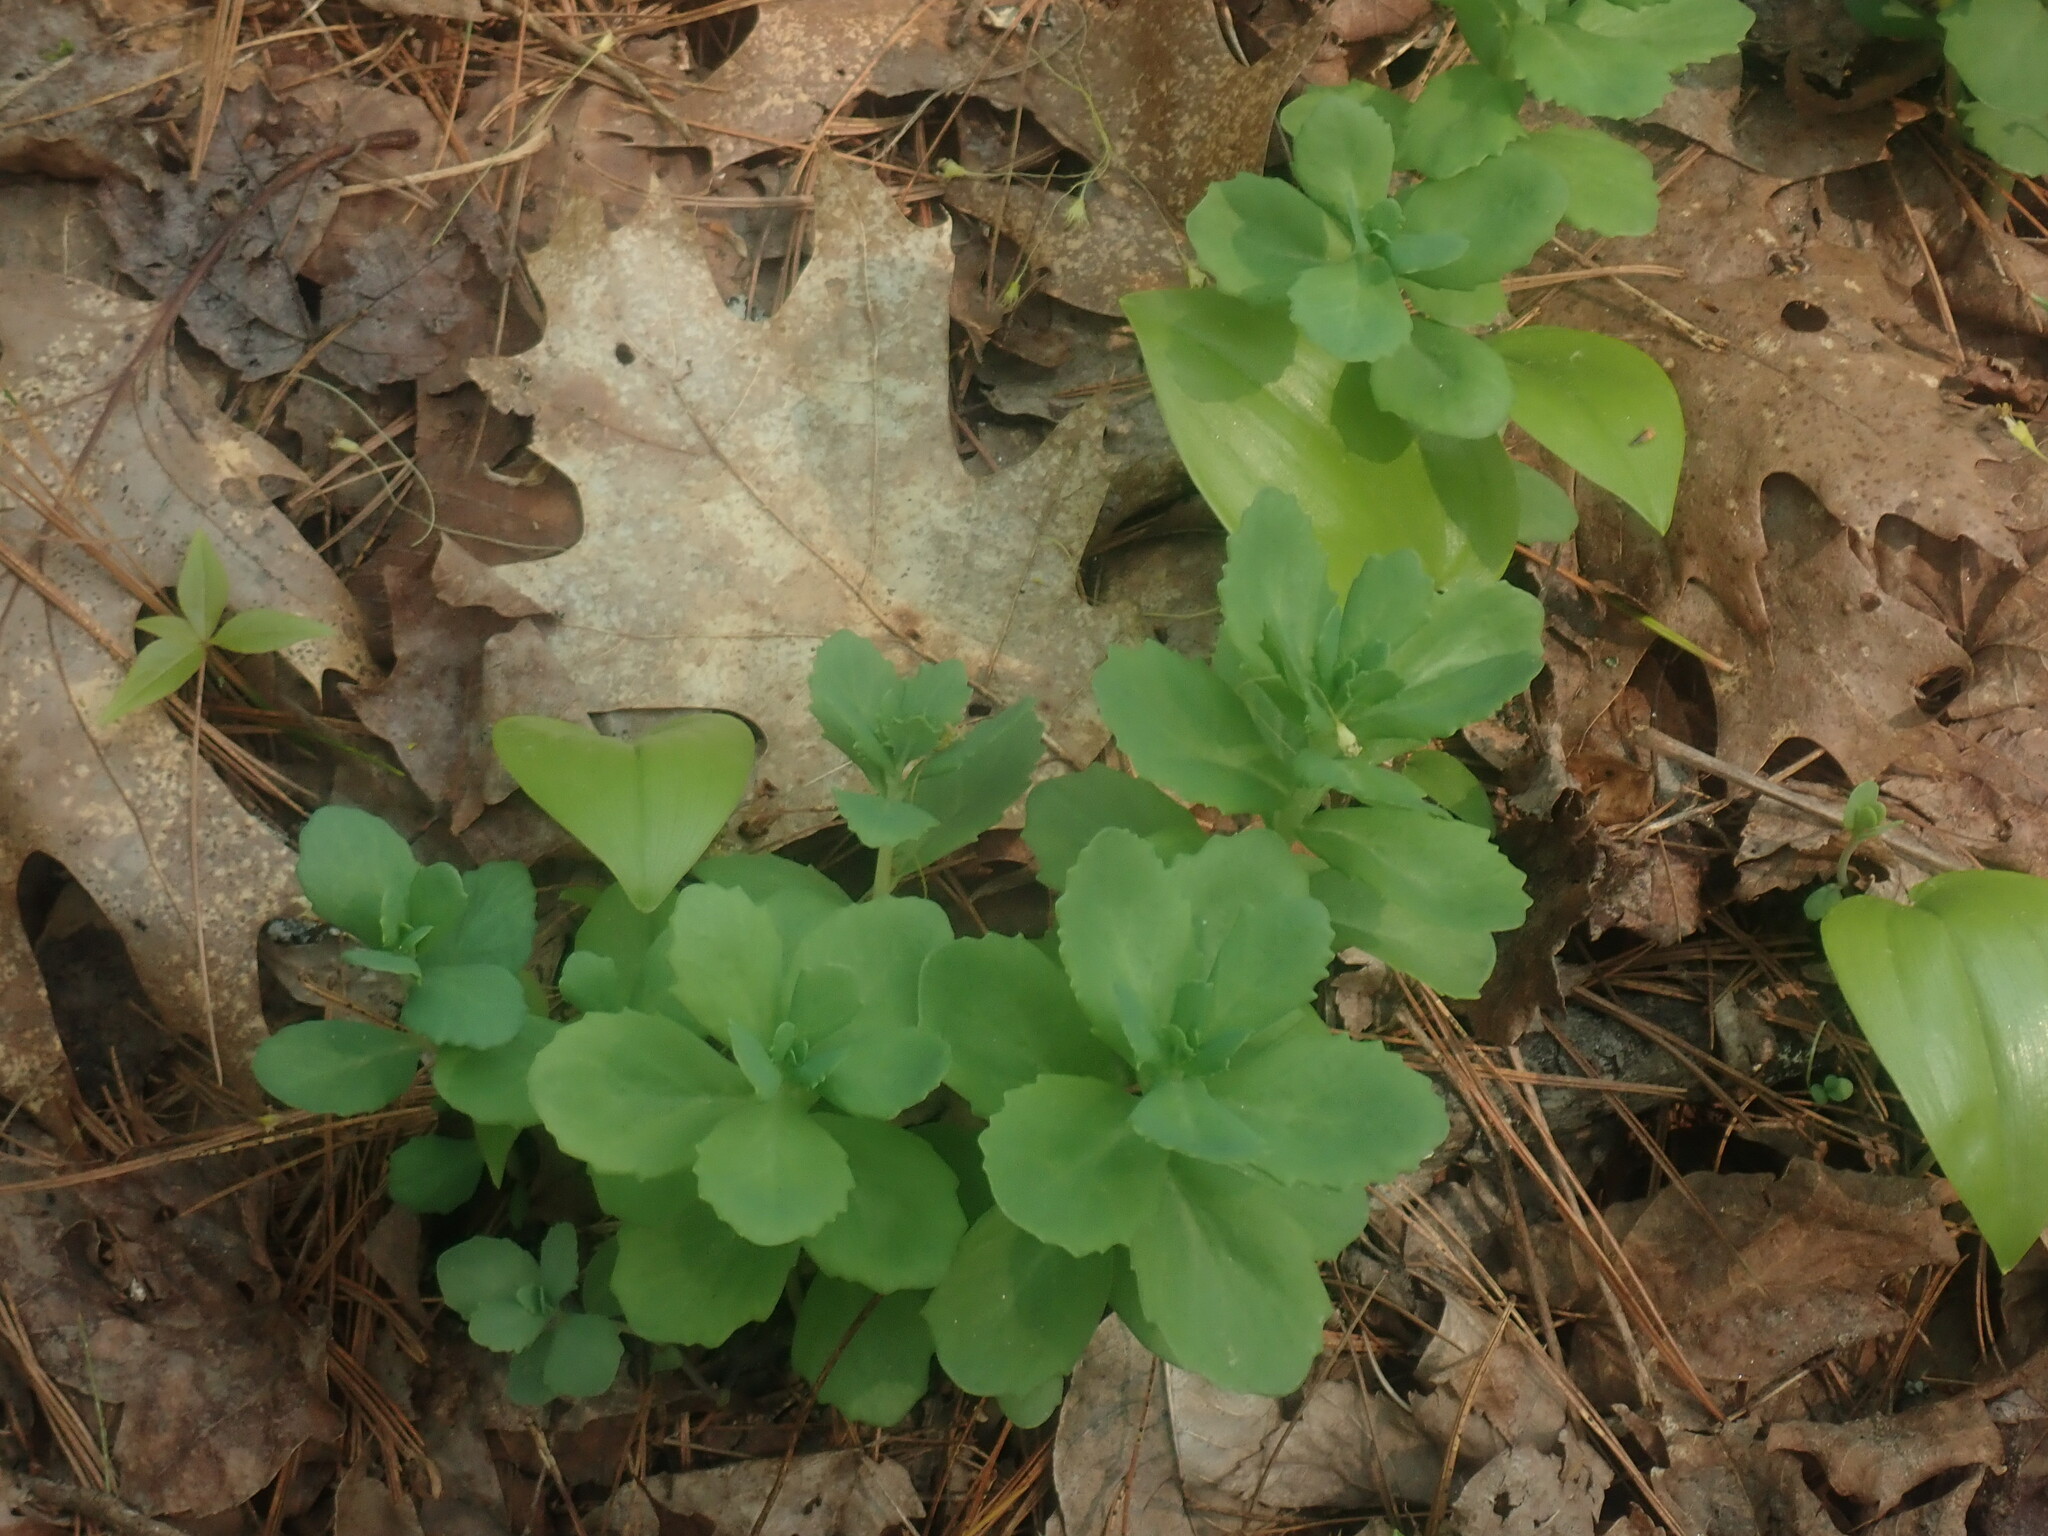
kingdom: Plantae
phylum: Tracheophyta
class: Magnoliopsida
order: Saxifragales
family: Crassulaceae
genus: Hylotelephium
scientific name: Hylotelephium telephium
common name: Live-forever
